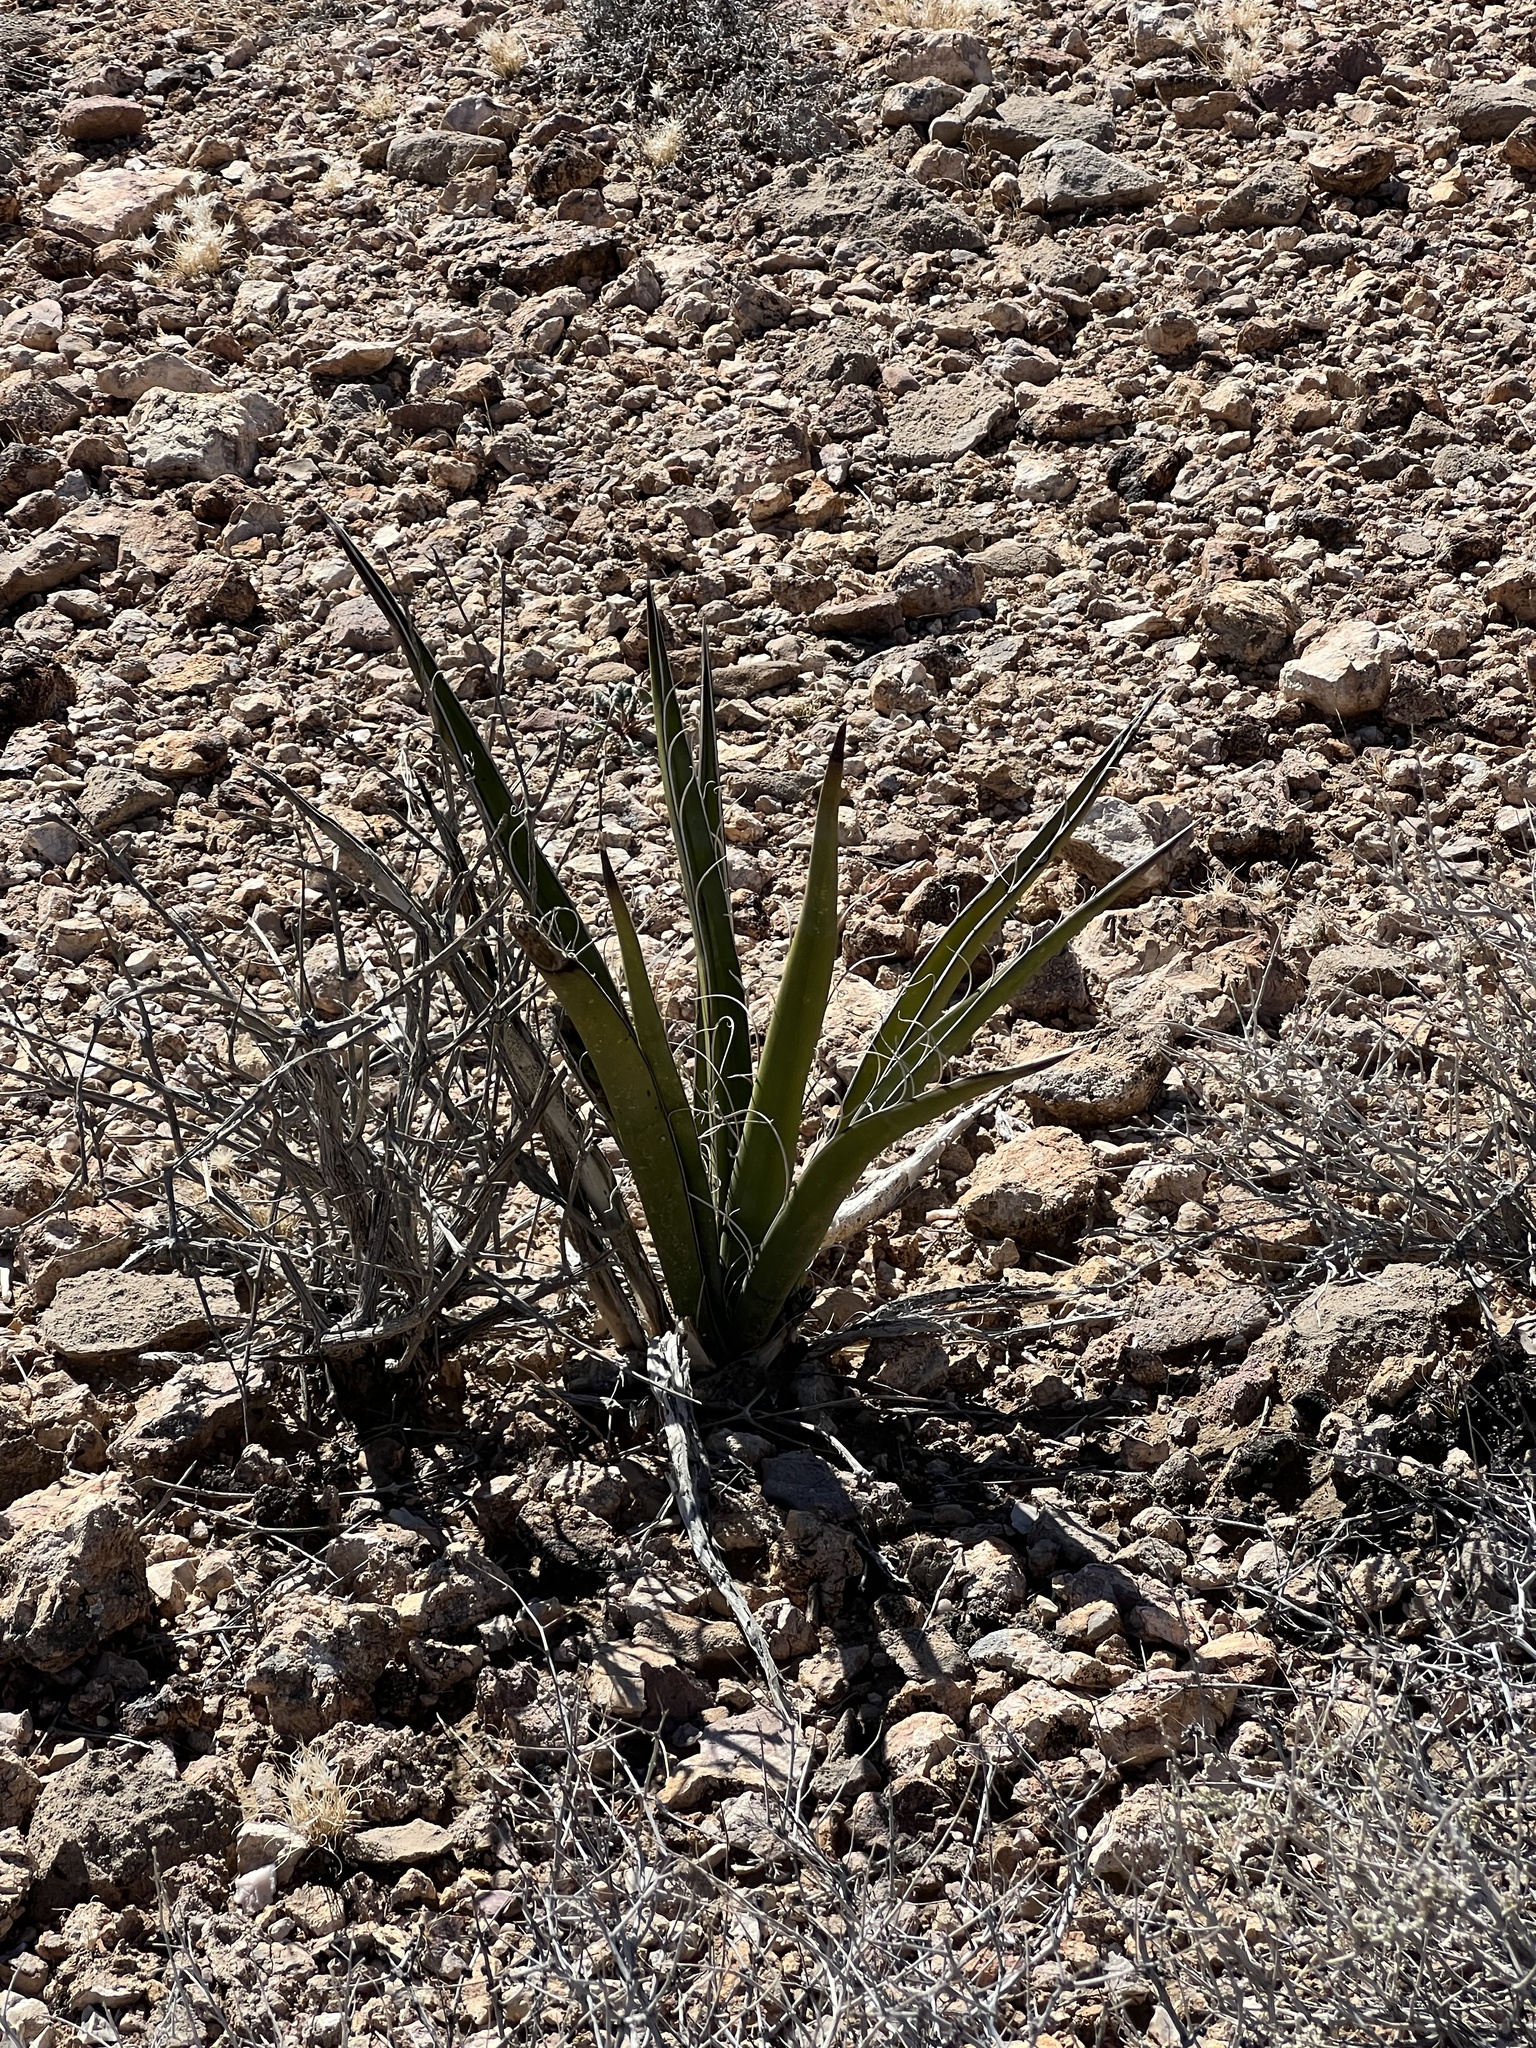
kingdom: Plantae
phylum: Tracheophyta
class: Liliopsida
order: Asparagales
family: Asparagaceae
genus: Yucca
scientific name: Yucca baccata
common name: Banana yucca
